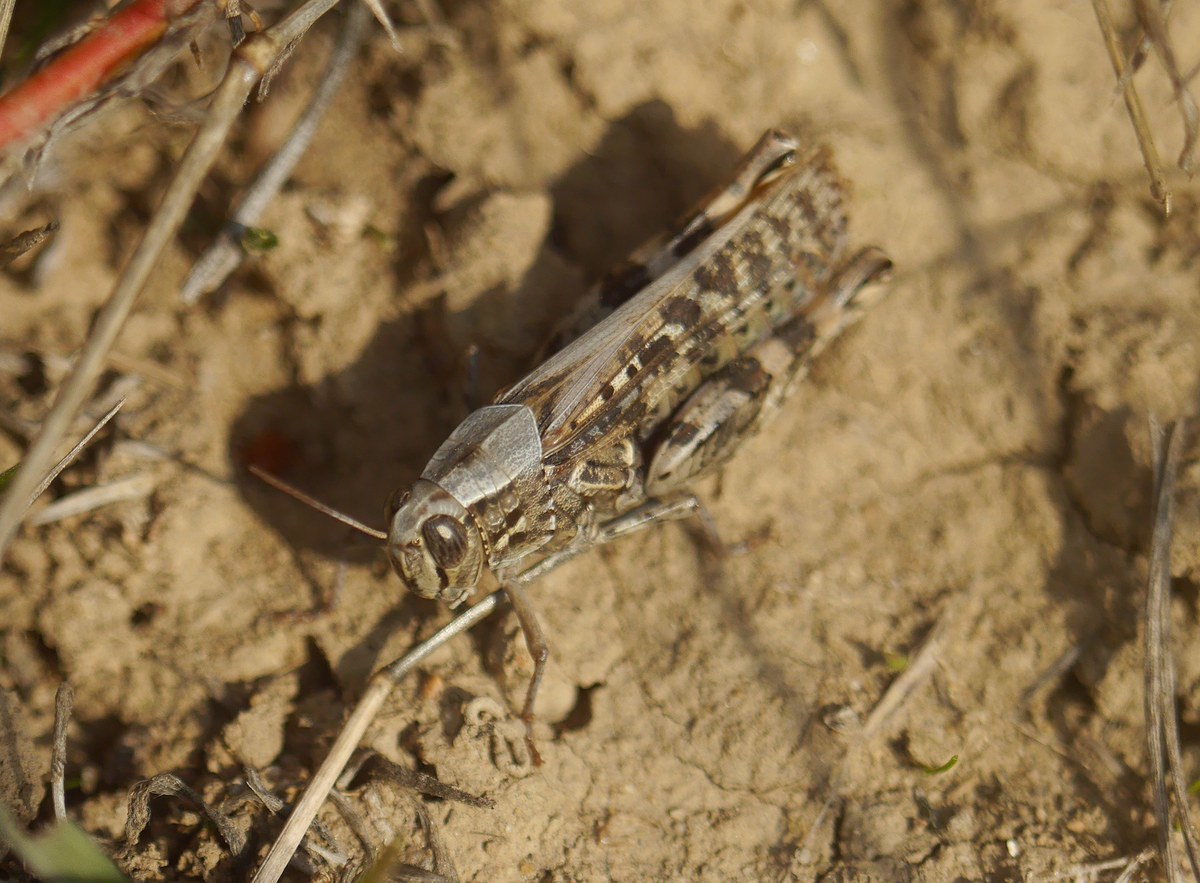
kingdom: Animalia
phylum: Arthropoda
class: Insecta
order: Orthoptera
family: Acrididae
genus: Calliptamus
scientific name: Calliptamus italicus
